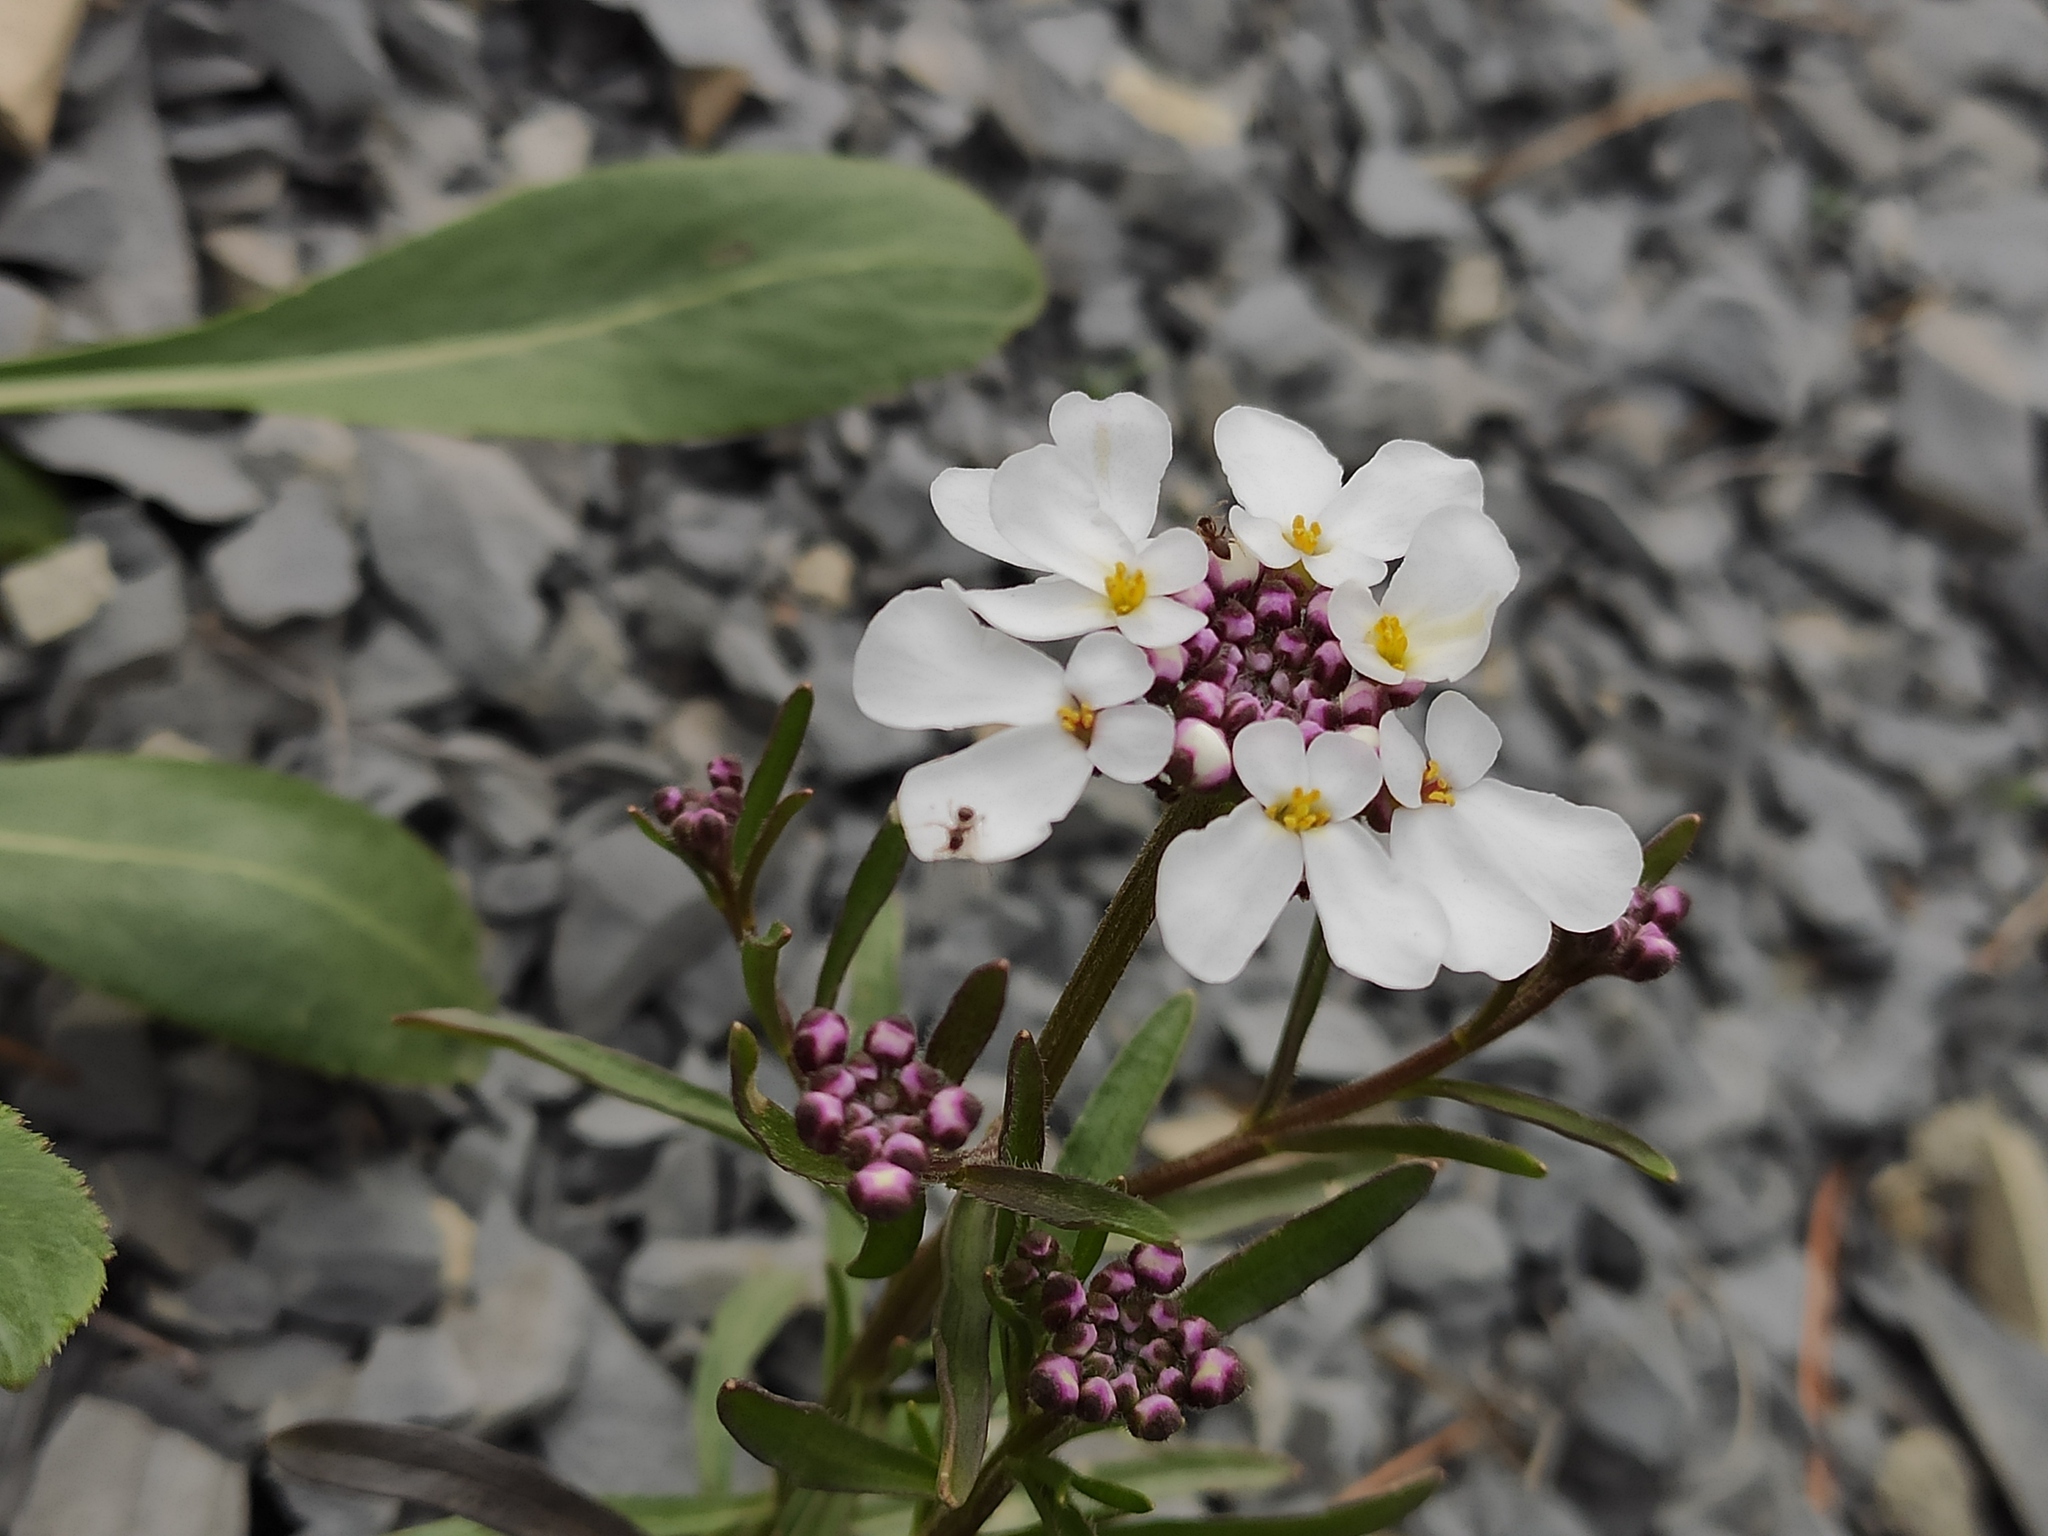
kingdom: Plantae
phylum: Tracheophyta
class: Magnoliopsida
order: Brassicales
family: Brassicaceae
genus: Iberis
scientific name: Iberis simplex
